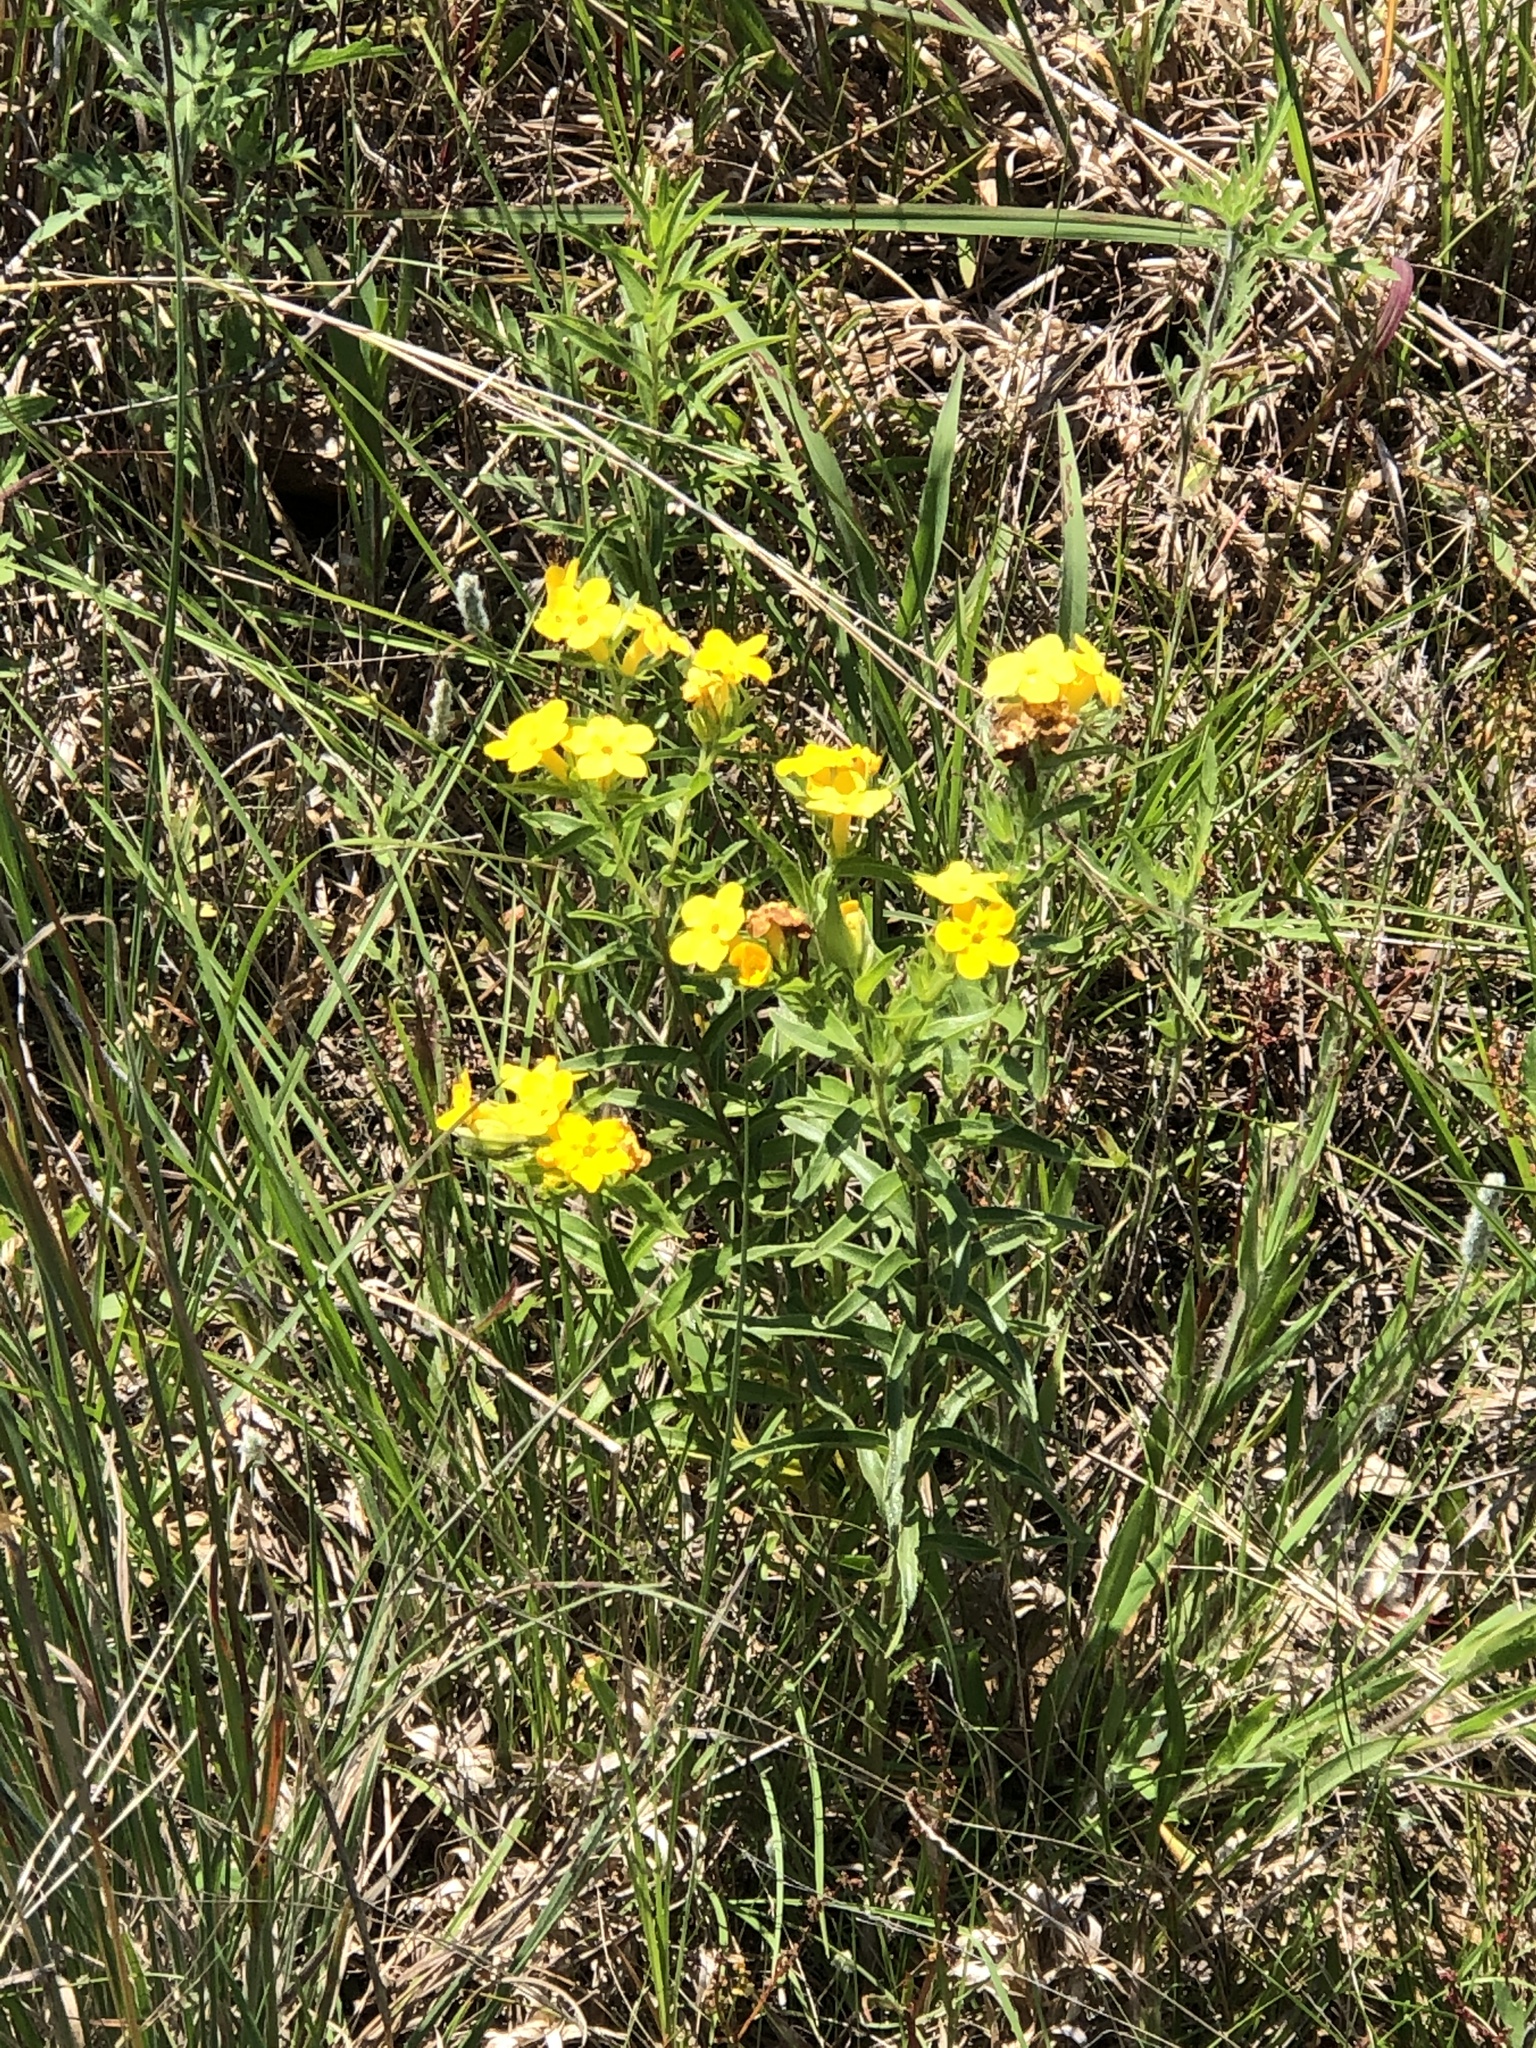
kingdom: Plantae
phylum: Tracheophyta
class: Magnoliopsida
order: Boraginales
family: Boraginaceae
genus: Lithospermum
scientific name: Lithospermum caroliniense
